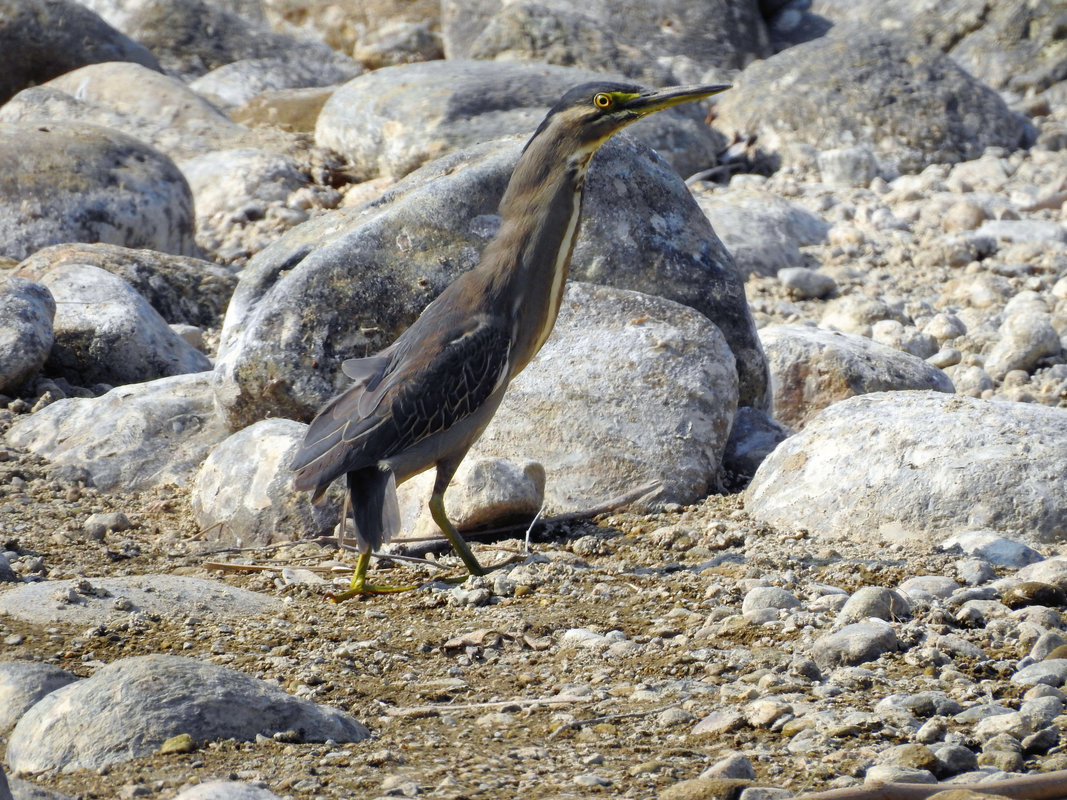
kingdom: Animalia
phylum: Chordata
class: Aves
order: Pelecaniformes
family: Ardeidae
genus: Butorides
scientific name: Butorides striata
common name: Striated heron
